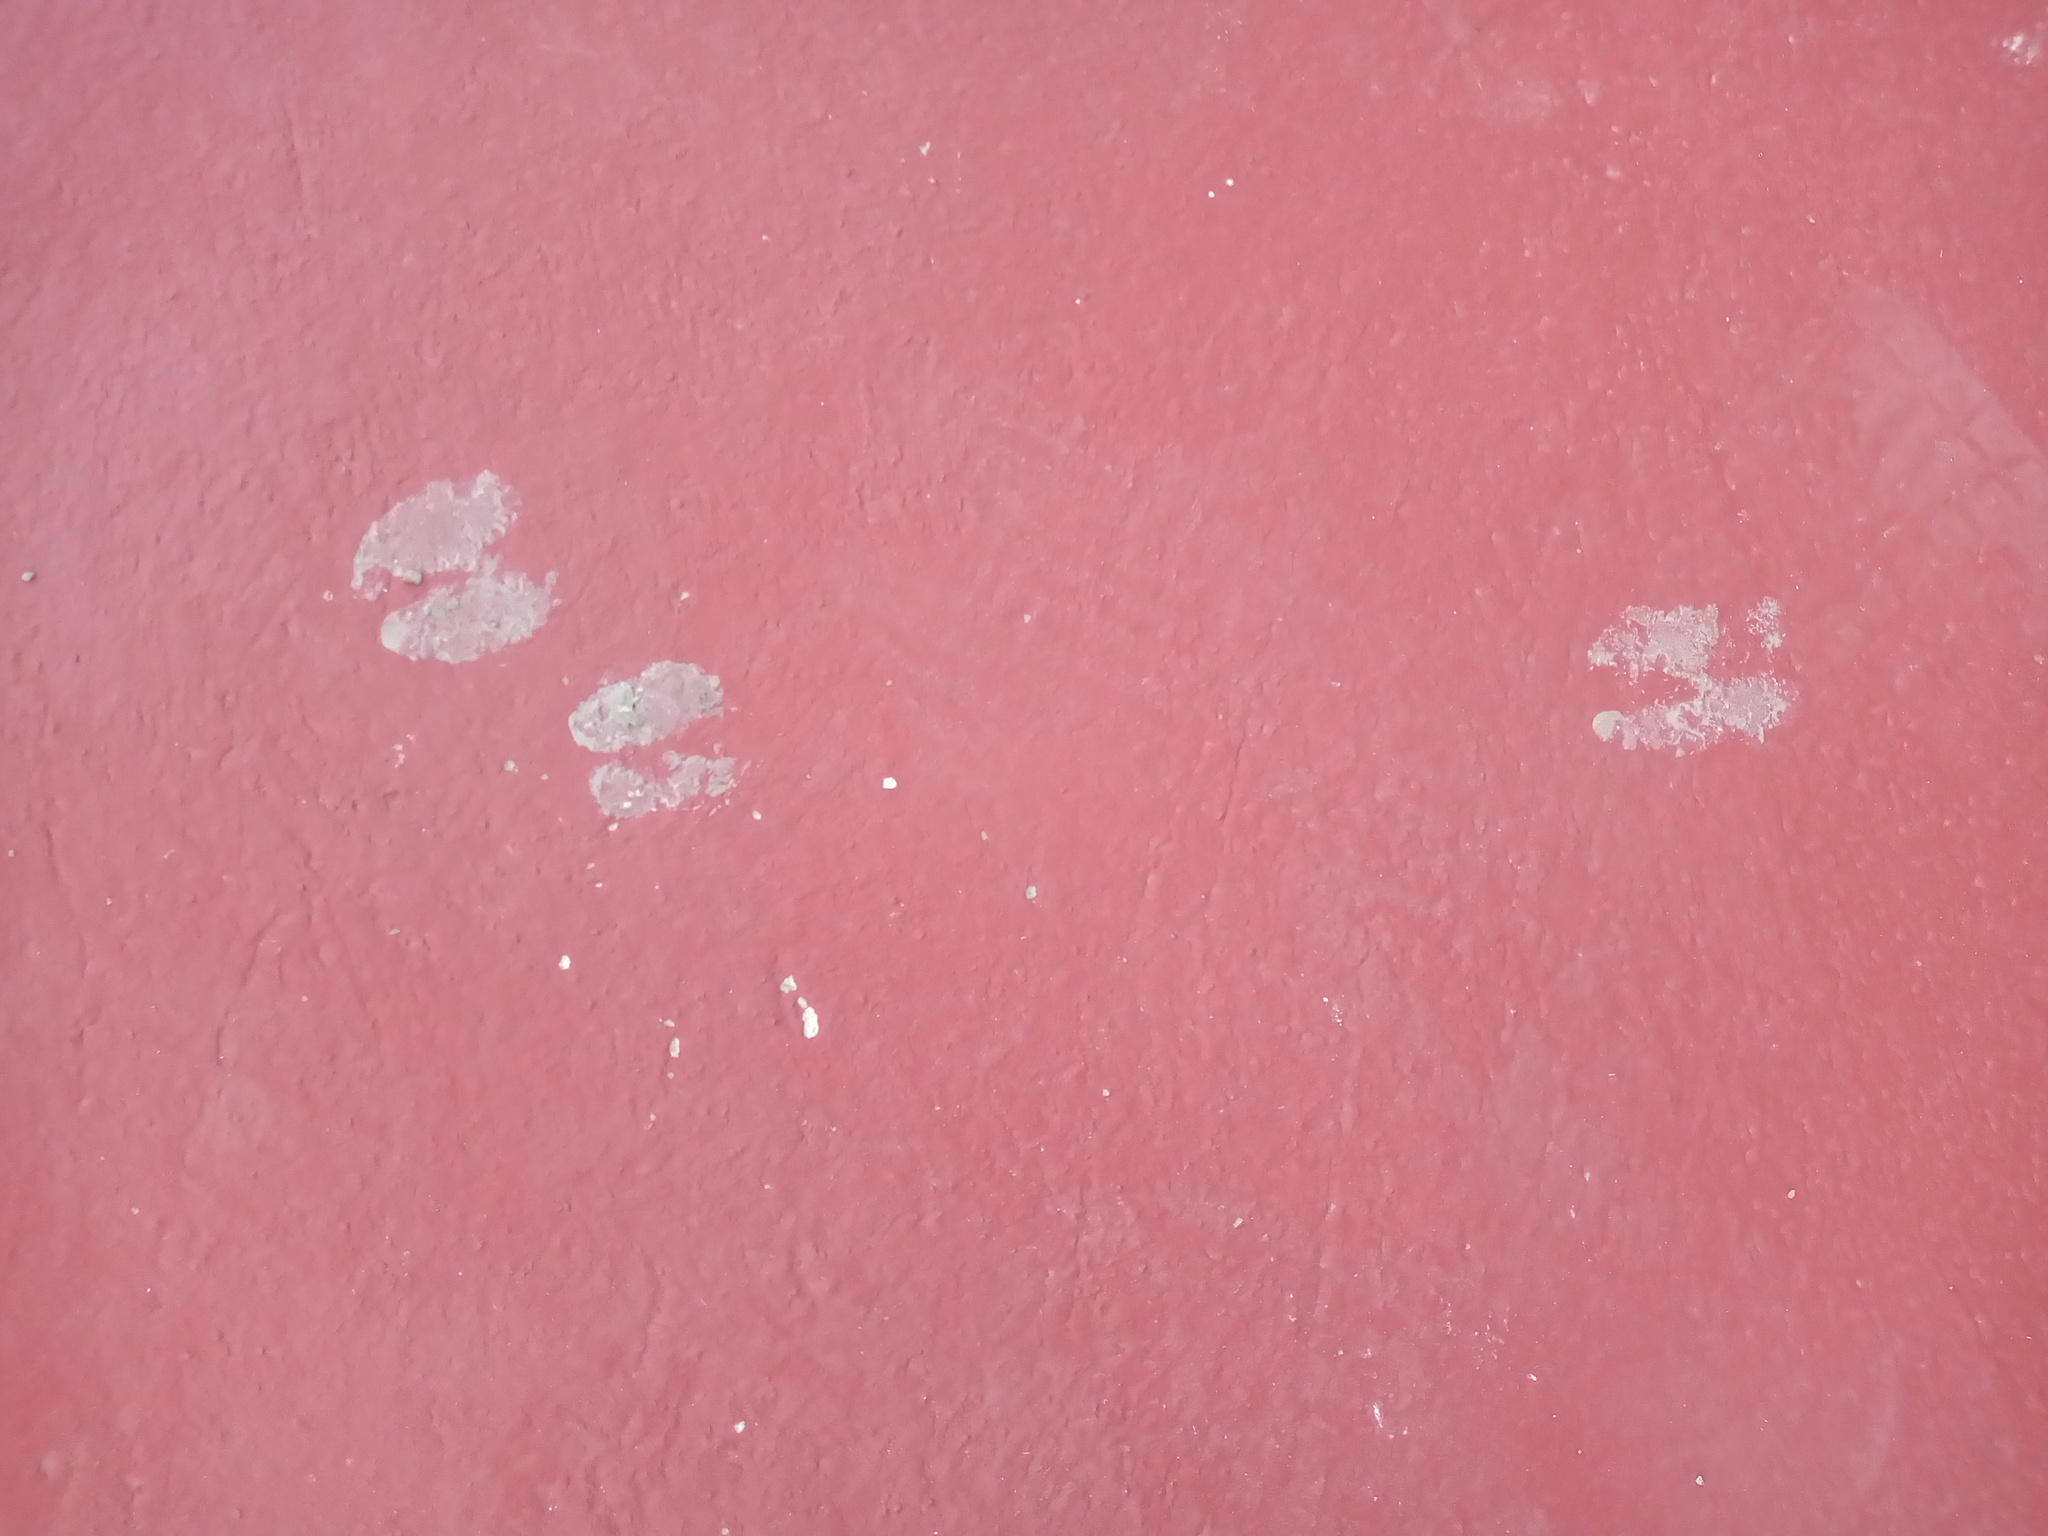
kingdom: Animalia
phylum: Chordata
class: Mammalia
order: Artiodactyla
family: Tayassuidae
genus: Pecari
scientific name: Pecari tajacu
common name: Collared peccary
